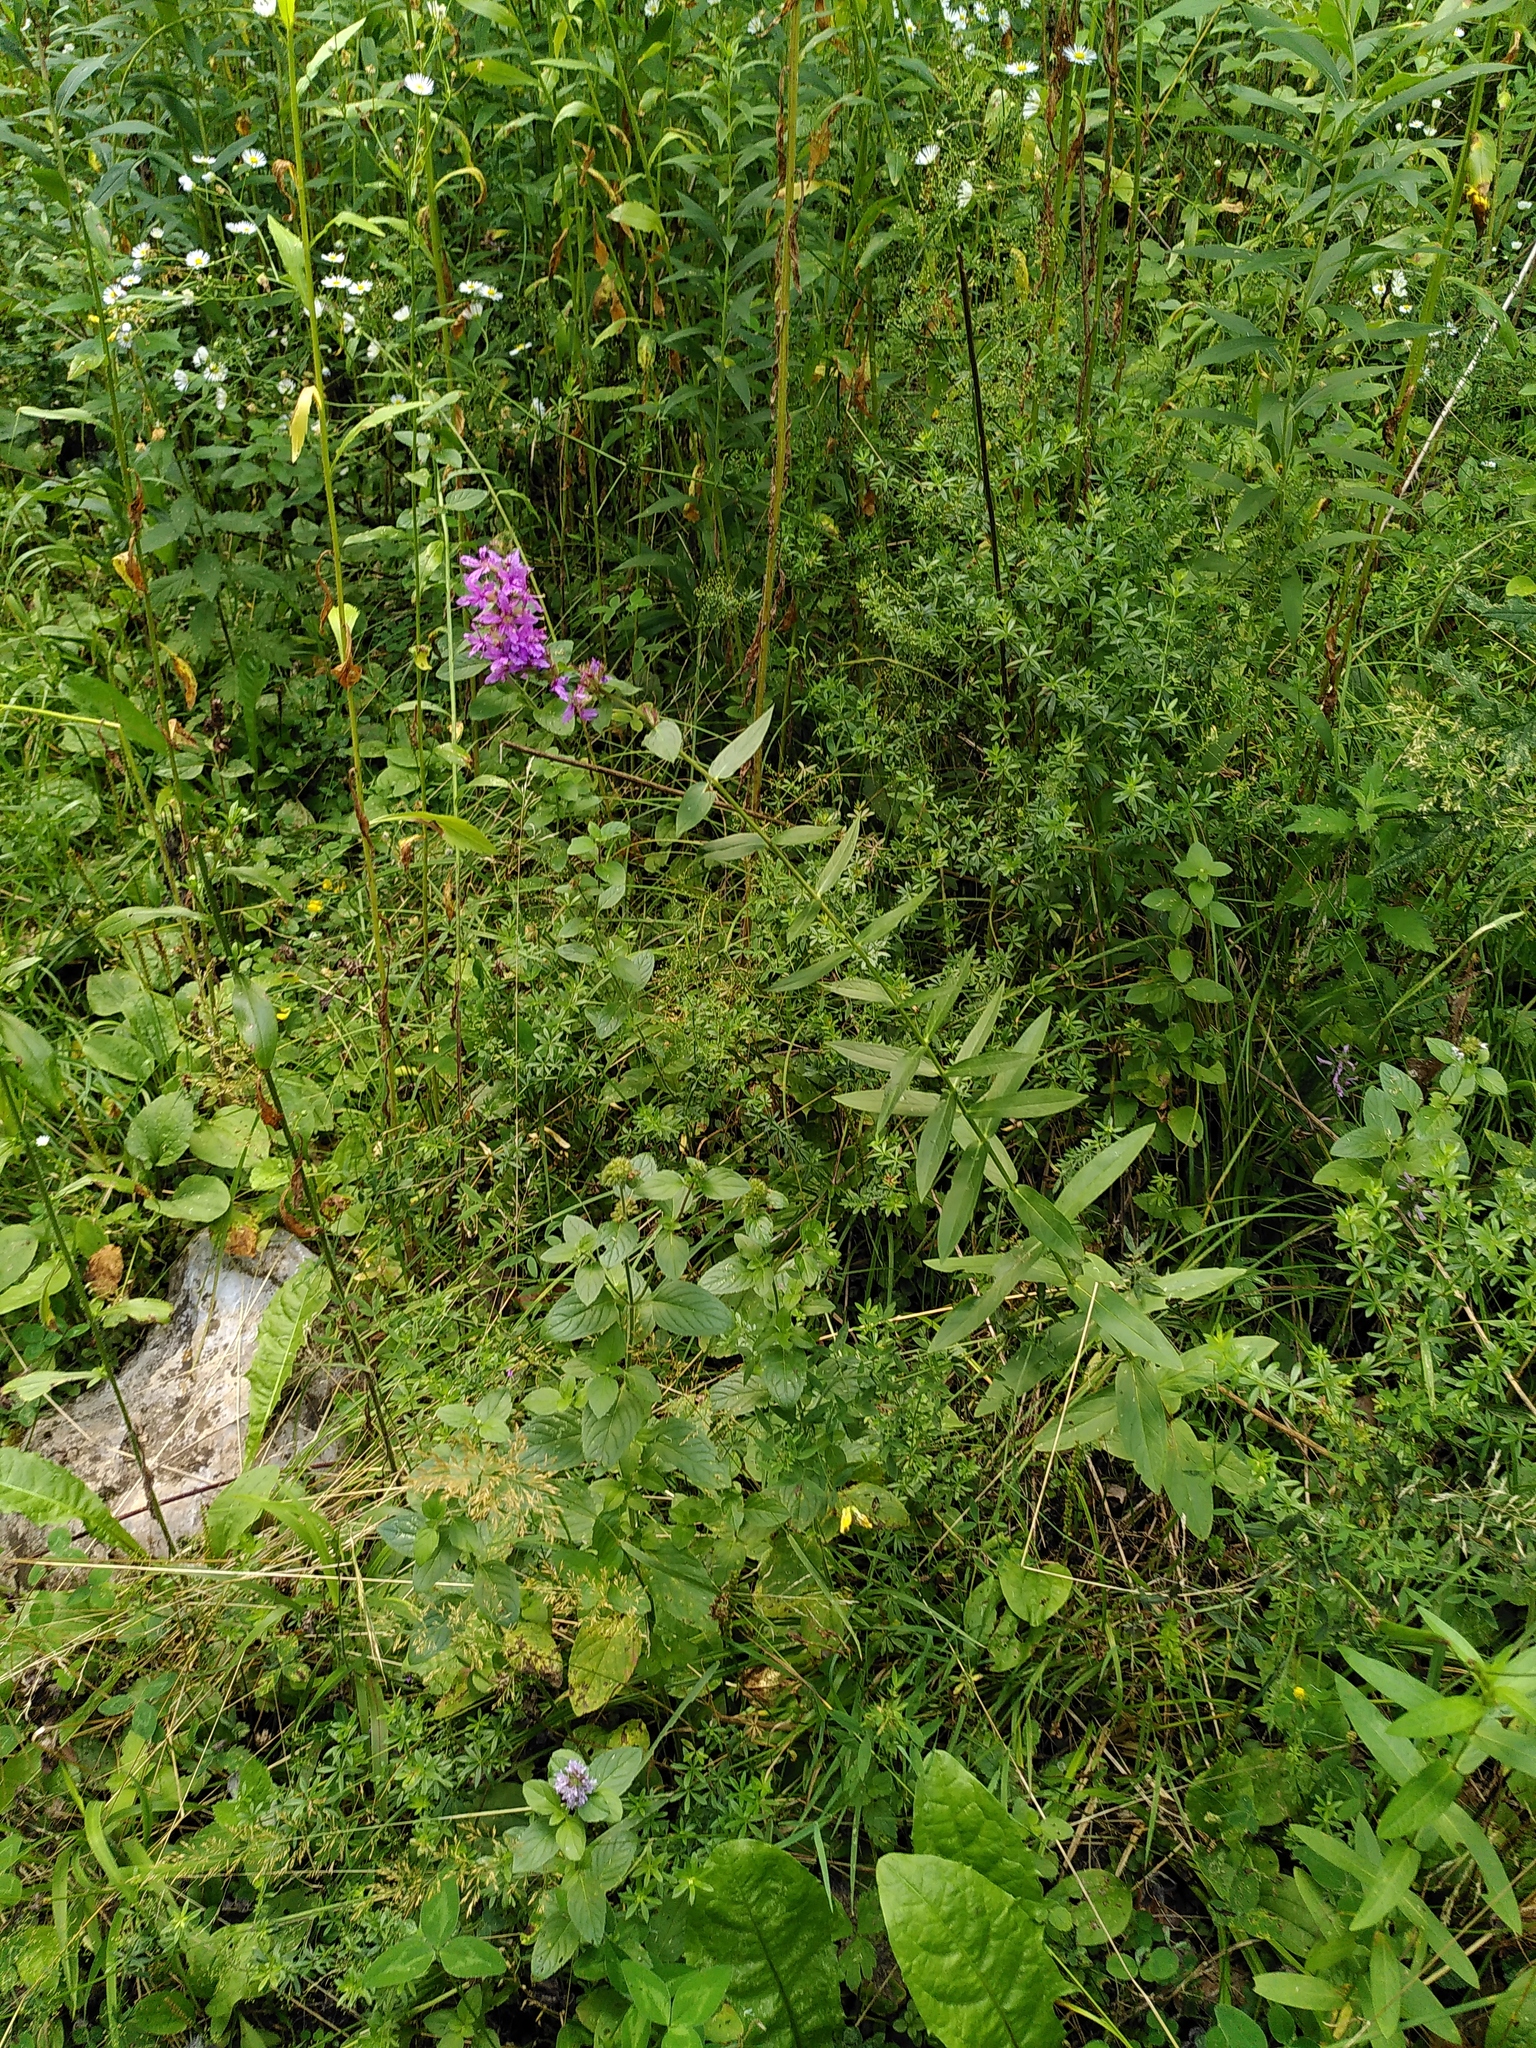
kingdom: Plantae
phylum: Tracheophyta
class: Magnoliopsida
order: Myrtales
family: Lythraceae
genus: Lythrum
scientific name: Lythrum salicaria
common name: Purple loosestrife
